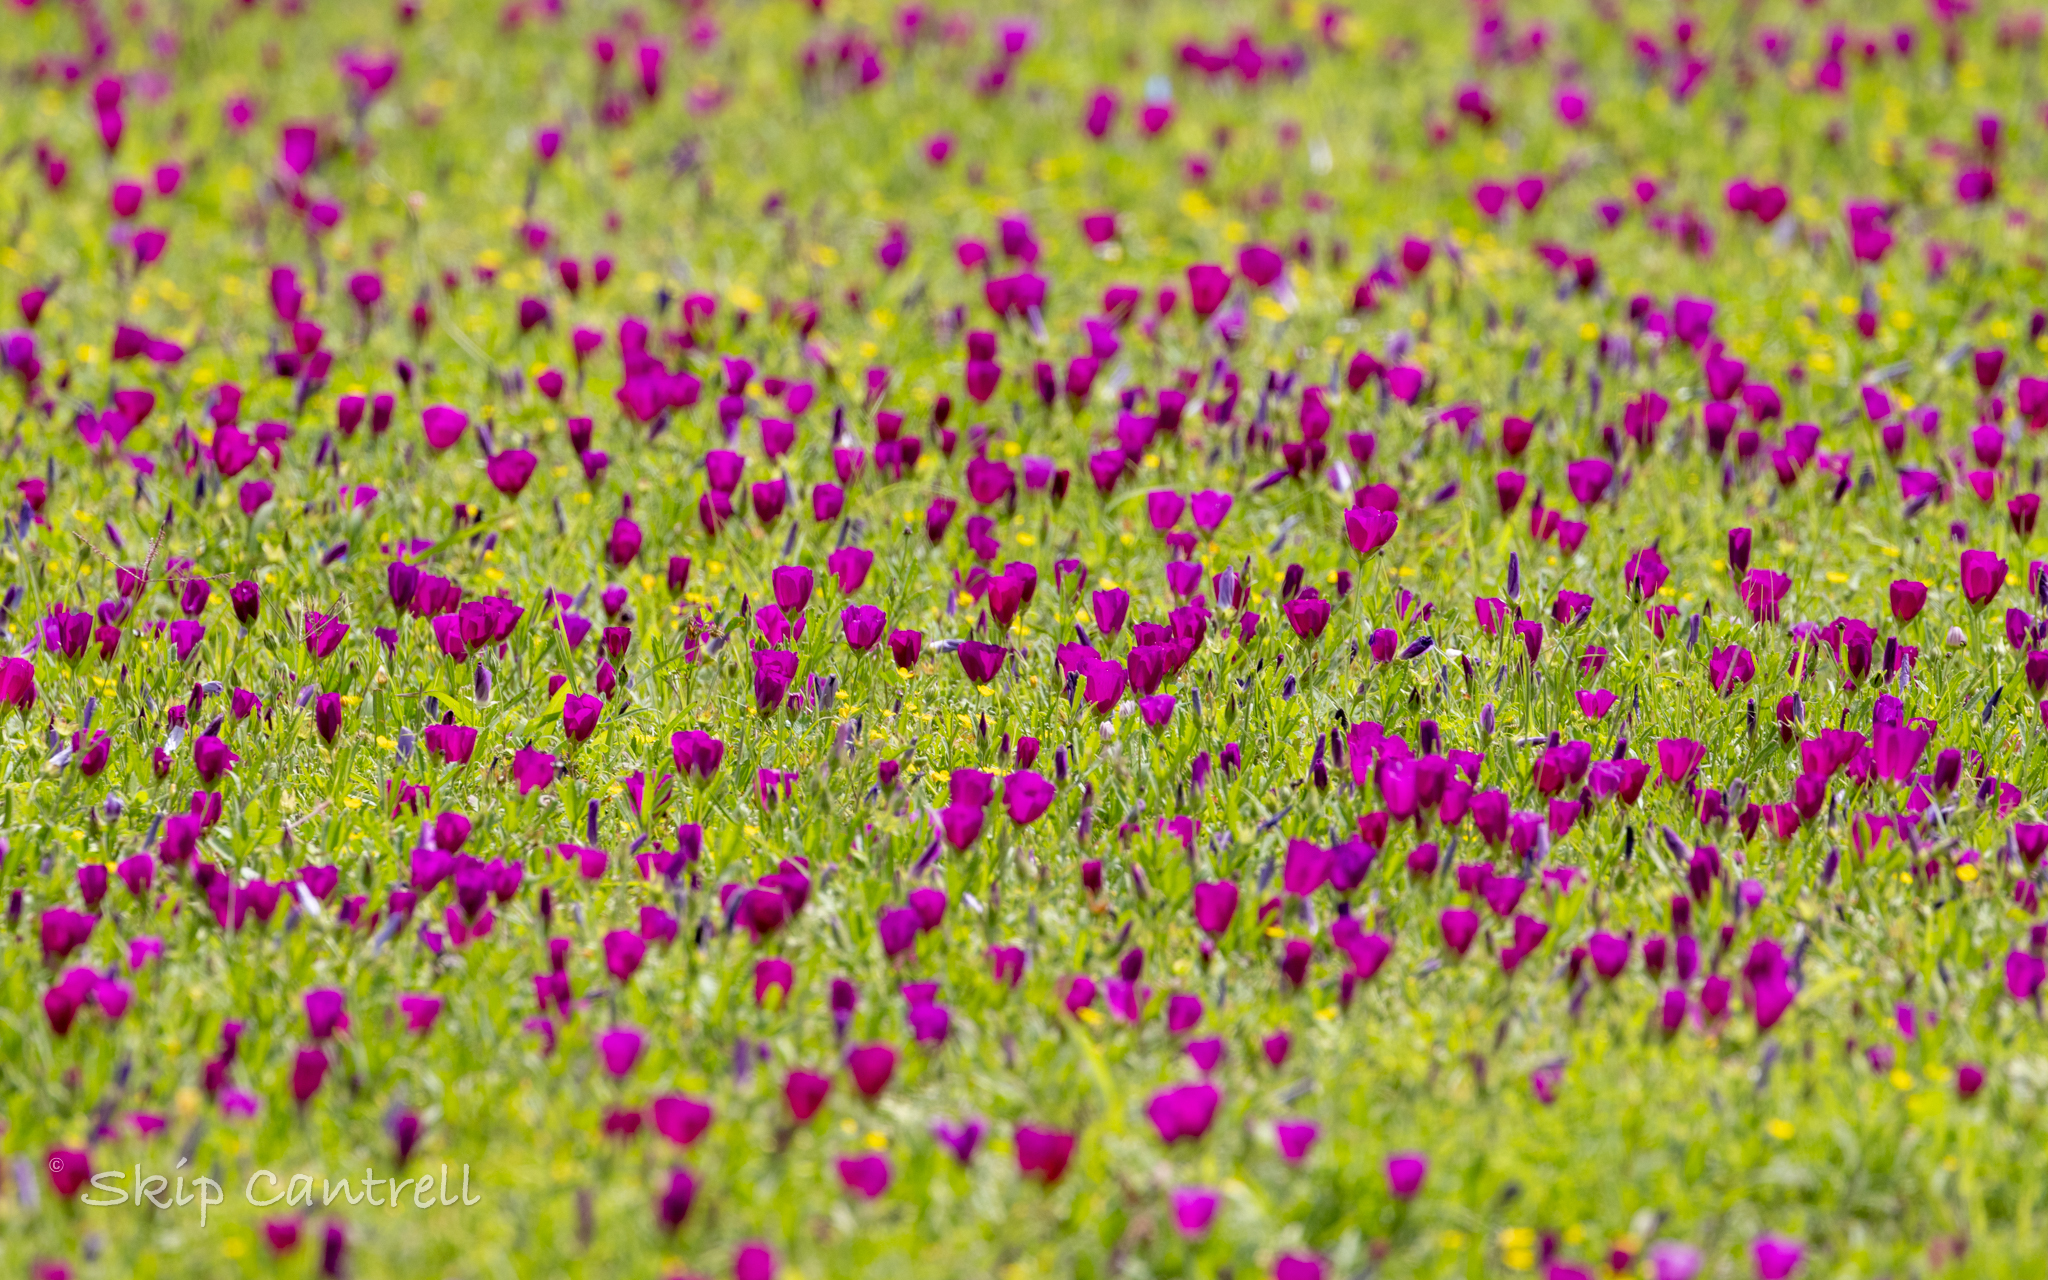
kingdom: Plantae
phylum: Tracheophyta
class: Magnoliopsida
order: Malvales
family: Malvaceae
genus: Callirhoe
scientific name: Callirhoe involucrata
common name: Purple poppy-mallow
